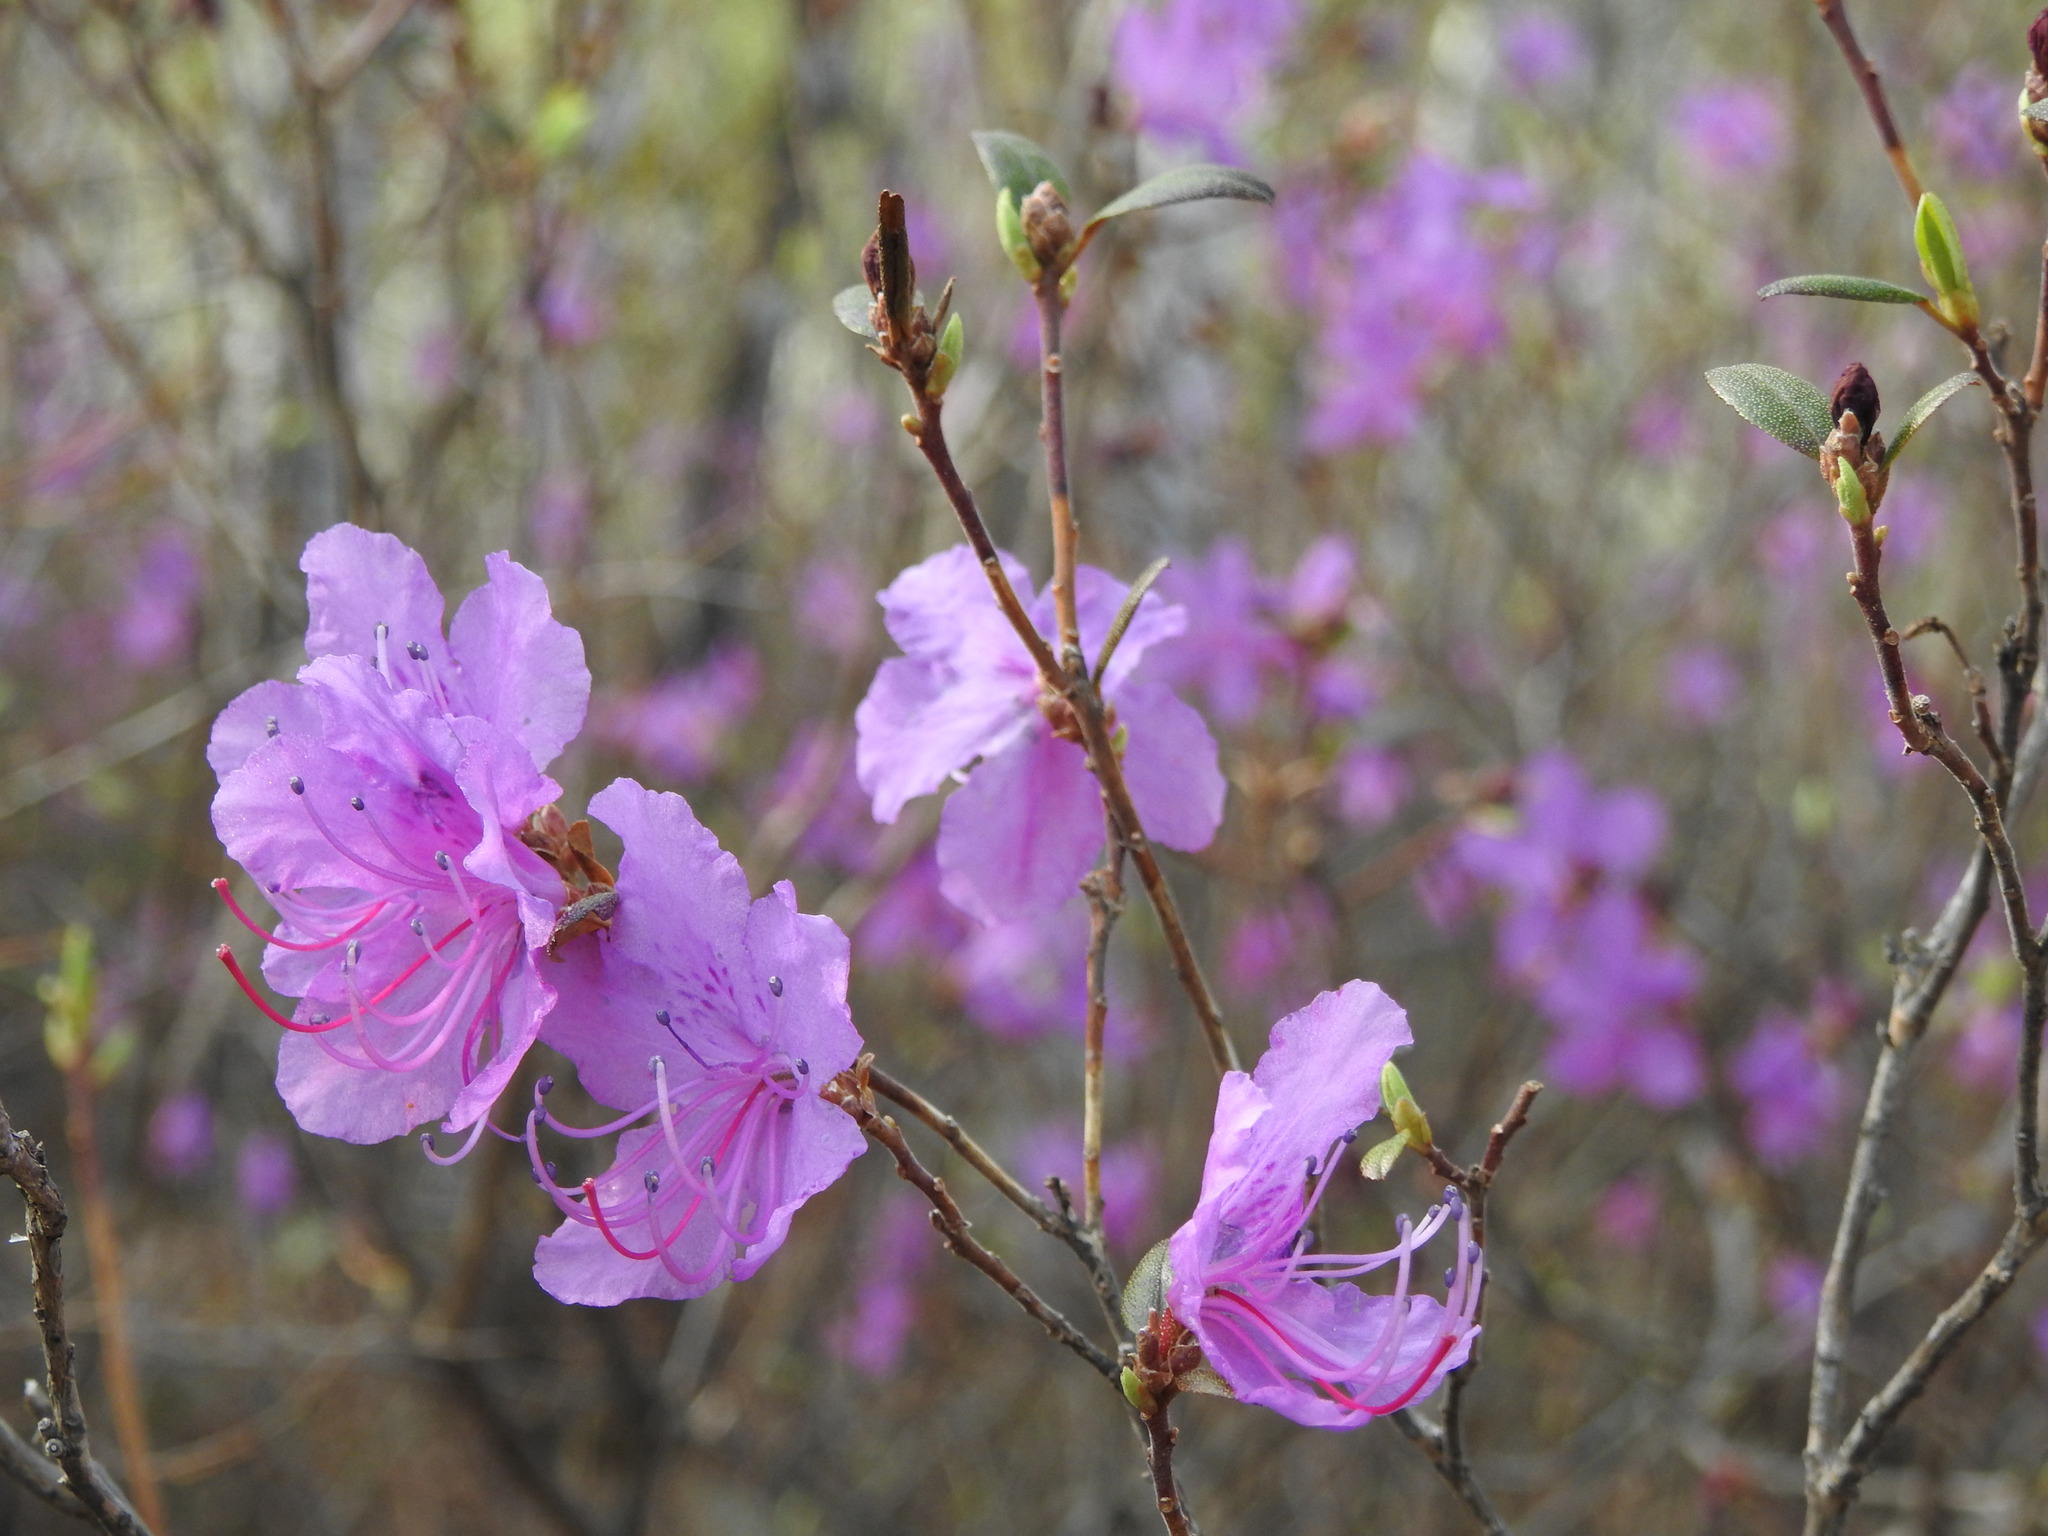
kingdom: Plantae
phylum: Tracheophyta
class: Magnoliopsida
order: Ericales
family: Ericaceae
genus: Rhododendron
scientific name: Rhododendron dauricum
